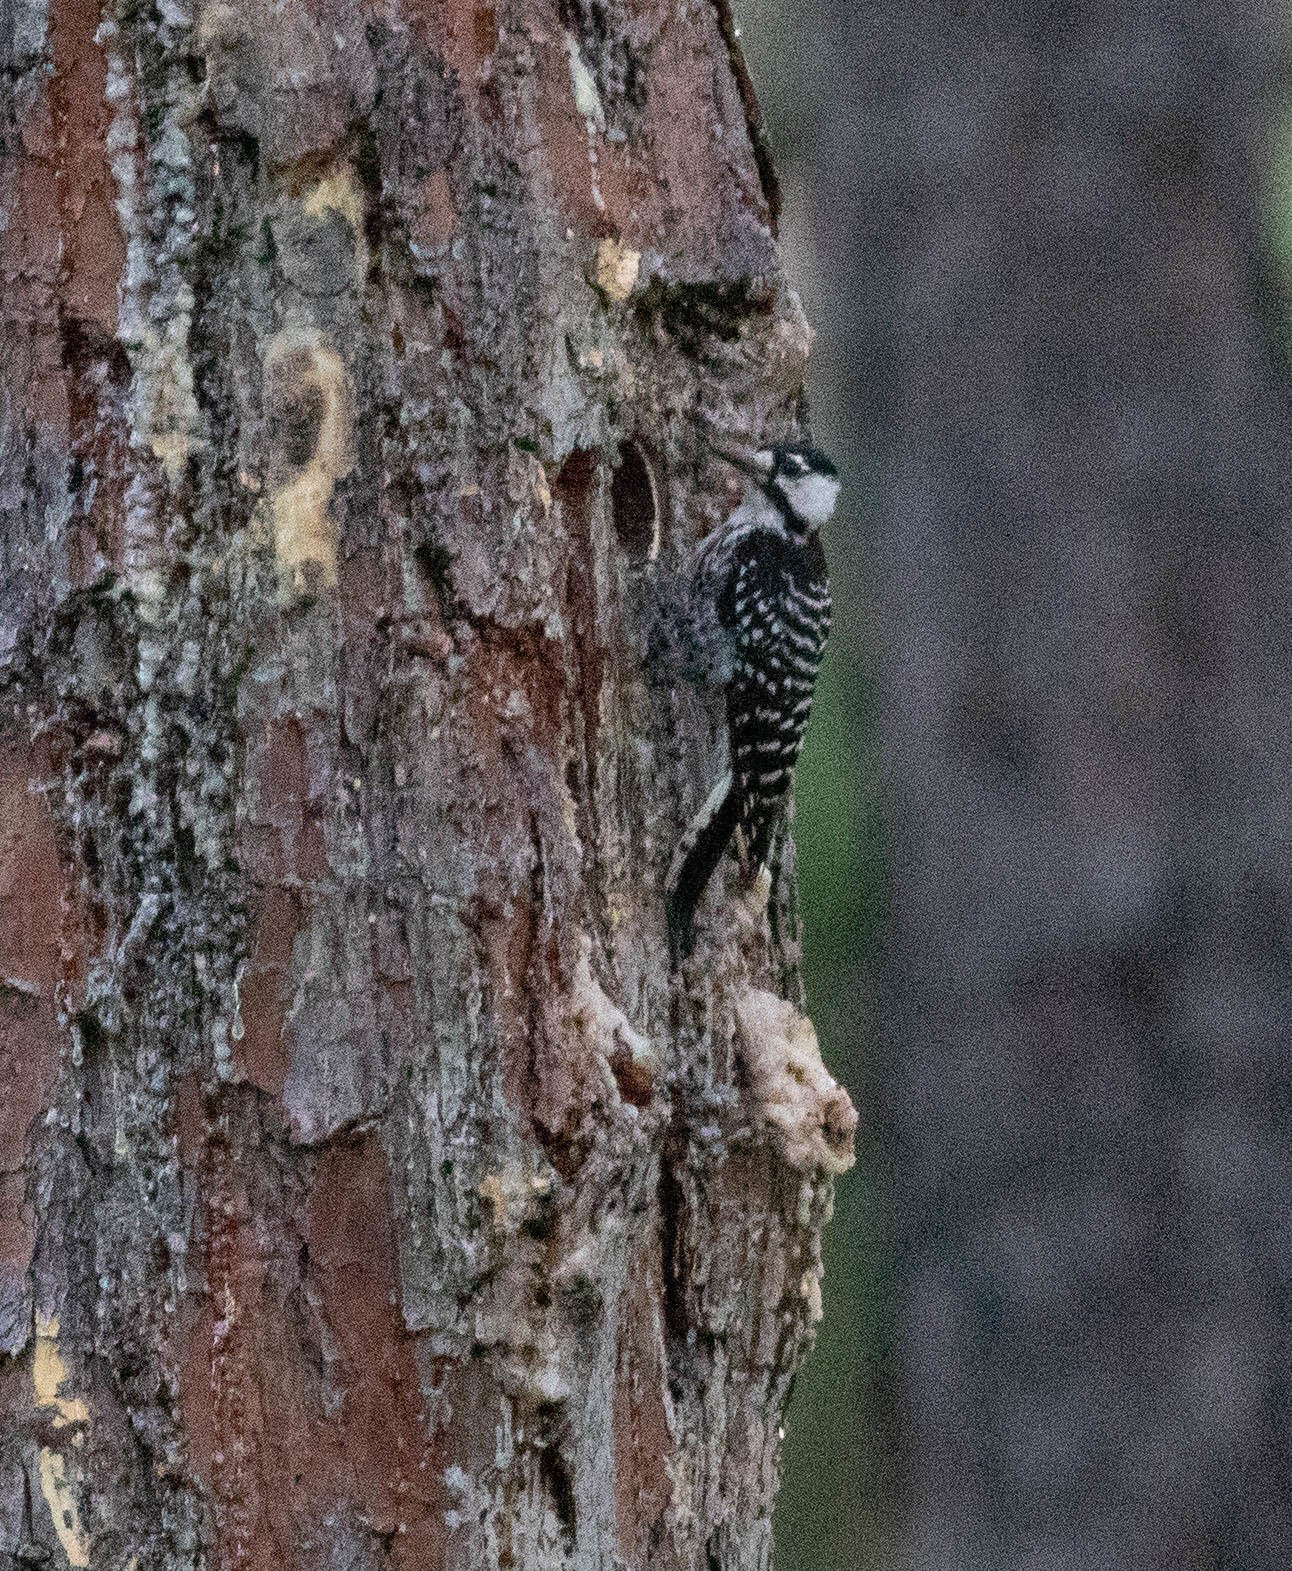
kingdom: Animalia
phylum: Chordata
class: Aves
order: Piciformes
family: Picidae
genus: Leuconotopicus
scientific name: Leuconotopicus borealis
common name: Red-cockaded woodpecker
